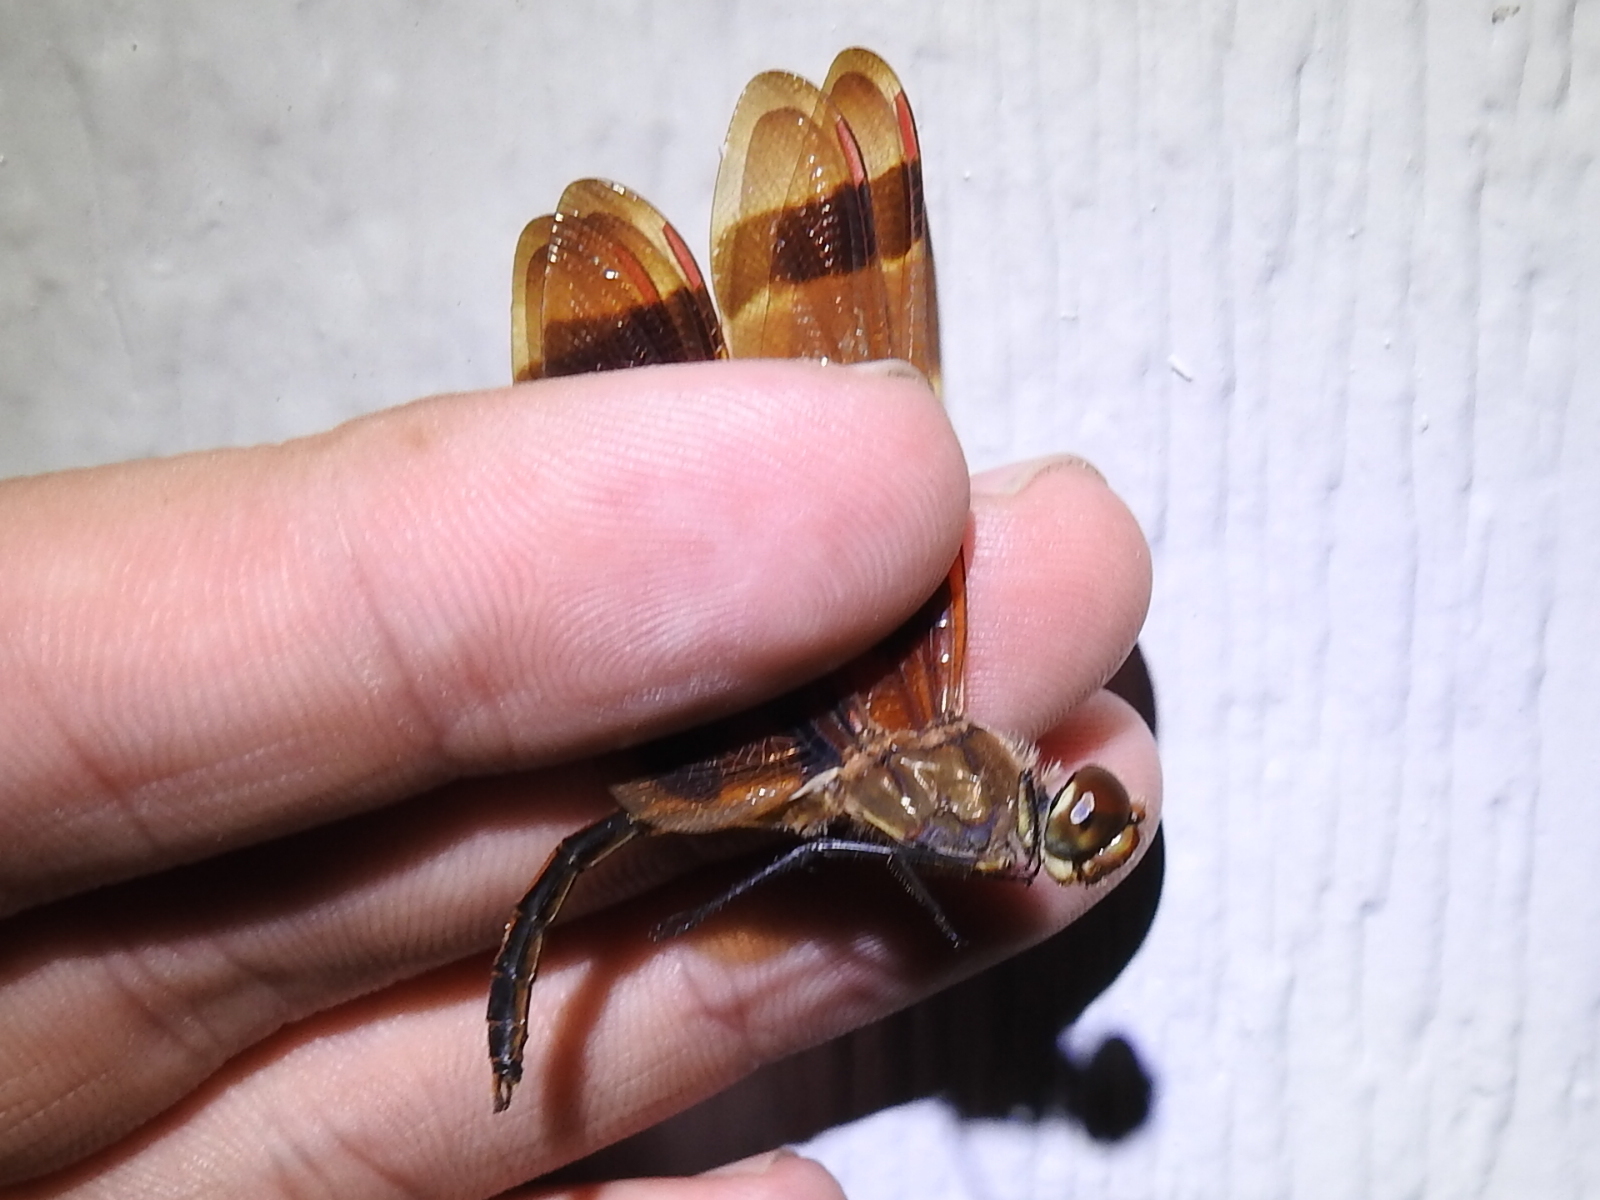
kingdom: Animalia
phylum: Arthropoda
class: Insecta
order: Odonata
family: Libellulidae
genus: Celithemis
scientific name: Celithemis eponina
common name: Halloween pennant
